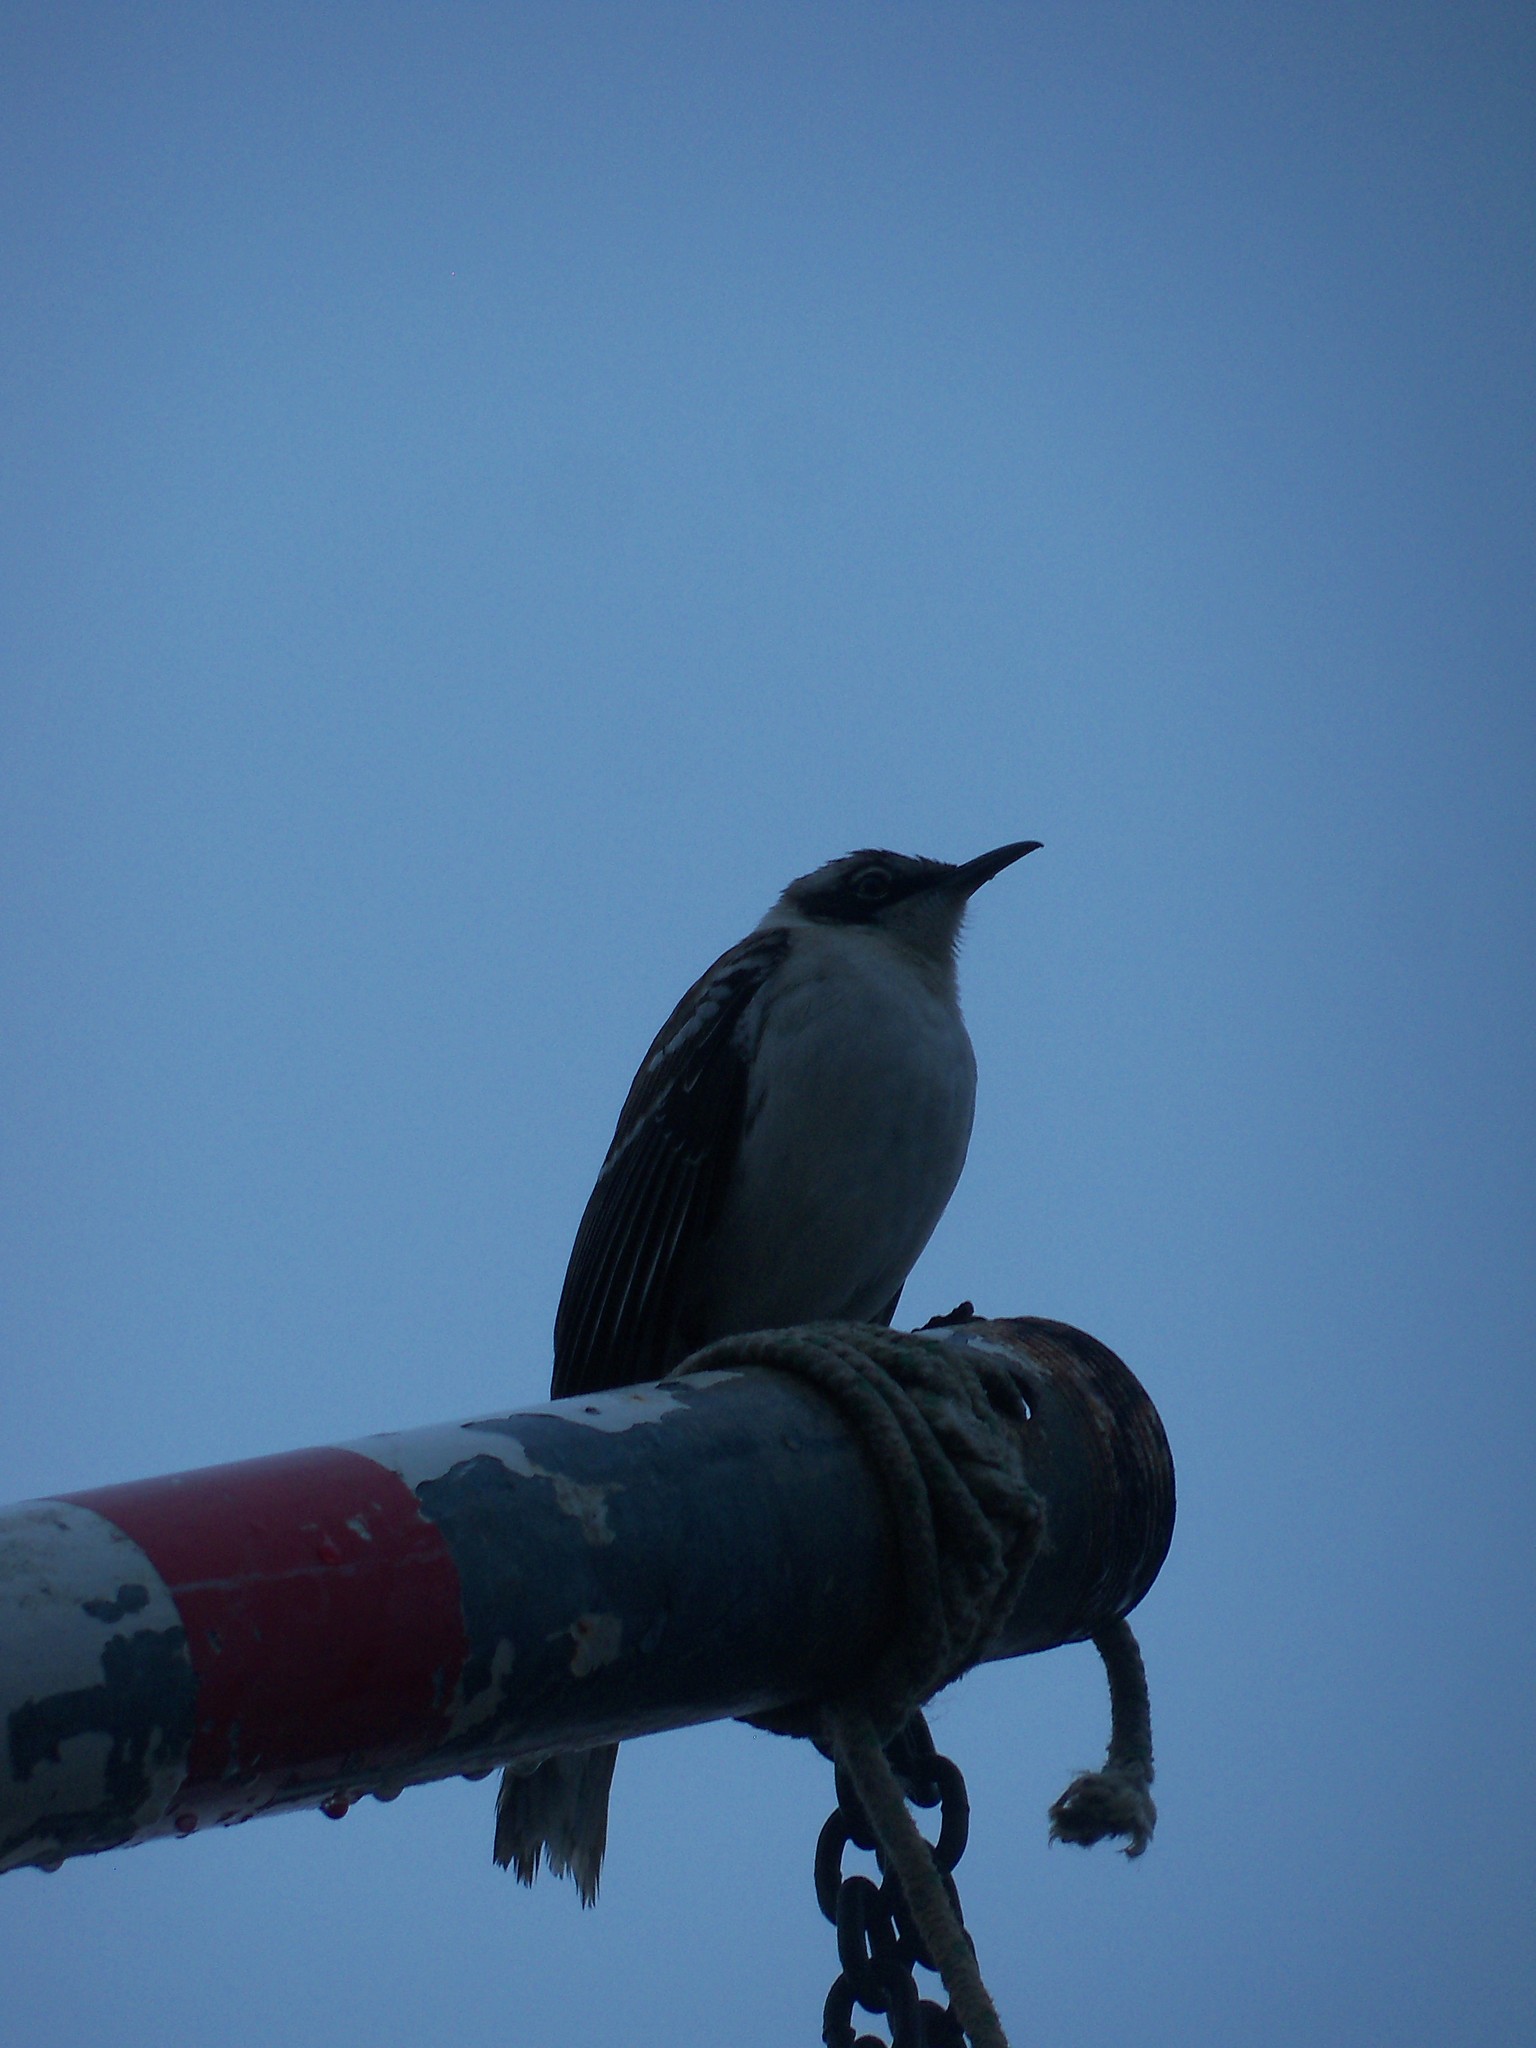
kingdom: Animalia
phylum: Chordata
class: Aves
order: Passeriformes
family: Mimidae
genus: Mimus
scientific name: Mimus parvulus
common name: Galapagos mockingbird
